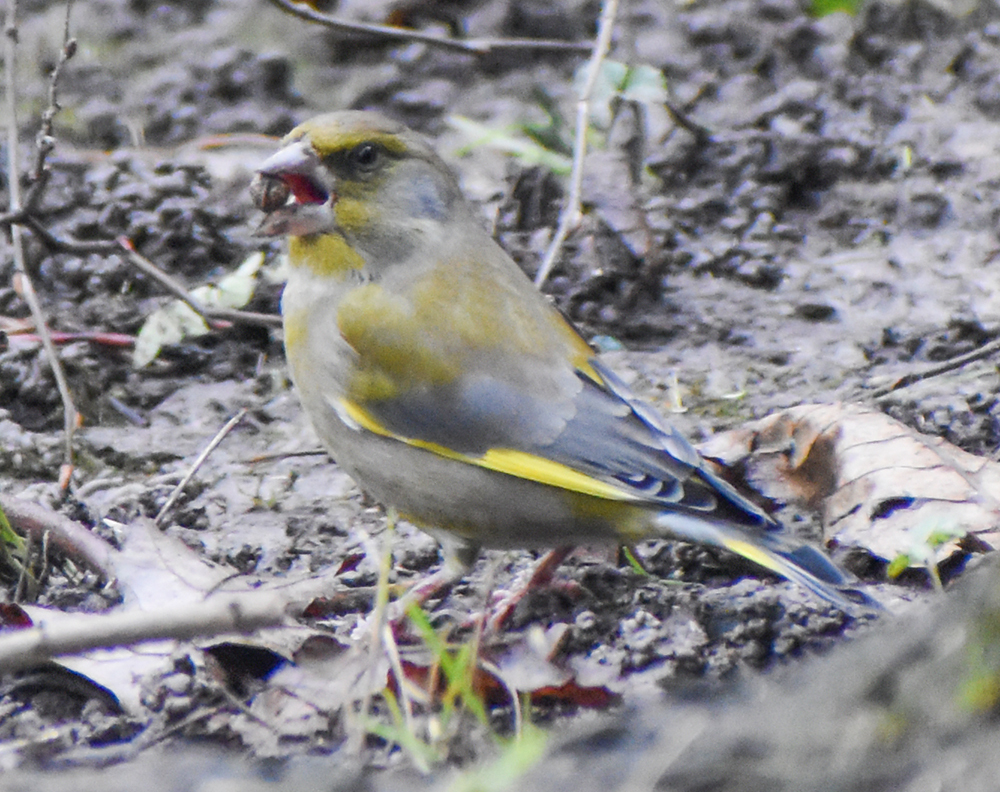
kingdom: Plantae
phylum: Tracheophyta
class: Liliopsida
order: Poales
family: Poaceae
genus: Chloris
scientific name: Chloris chloris
